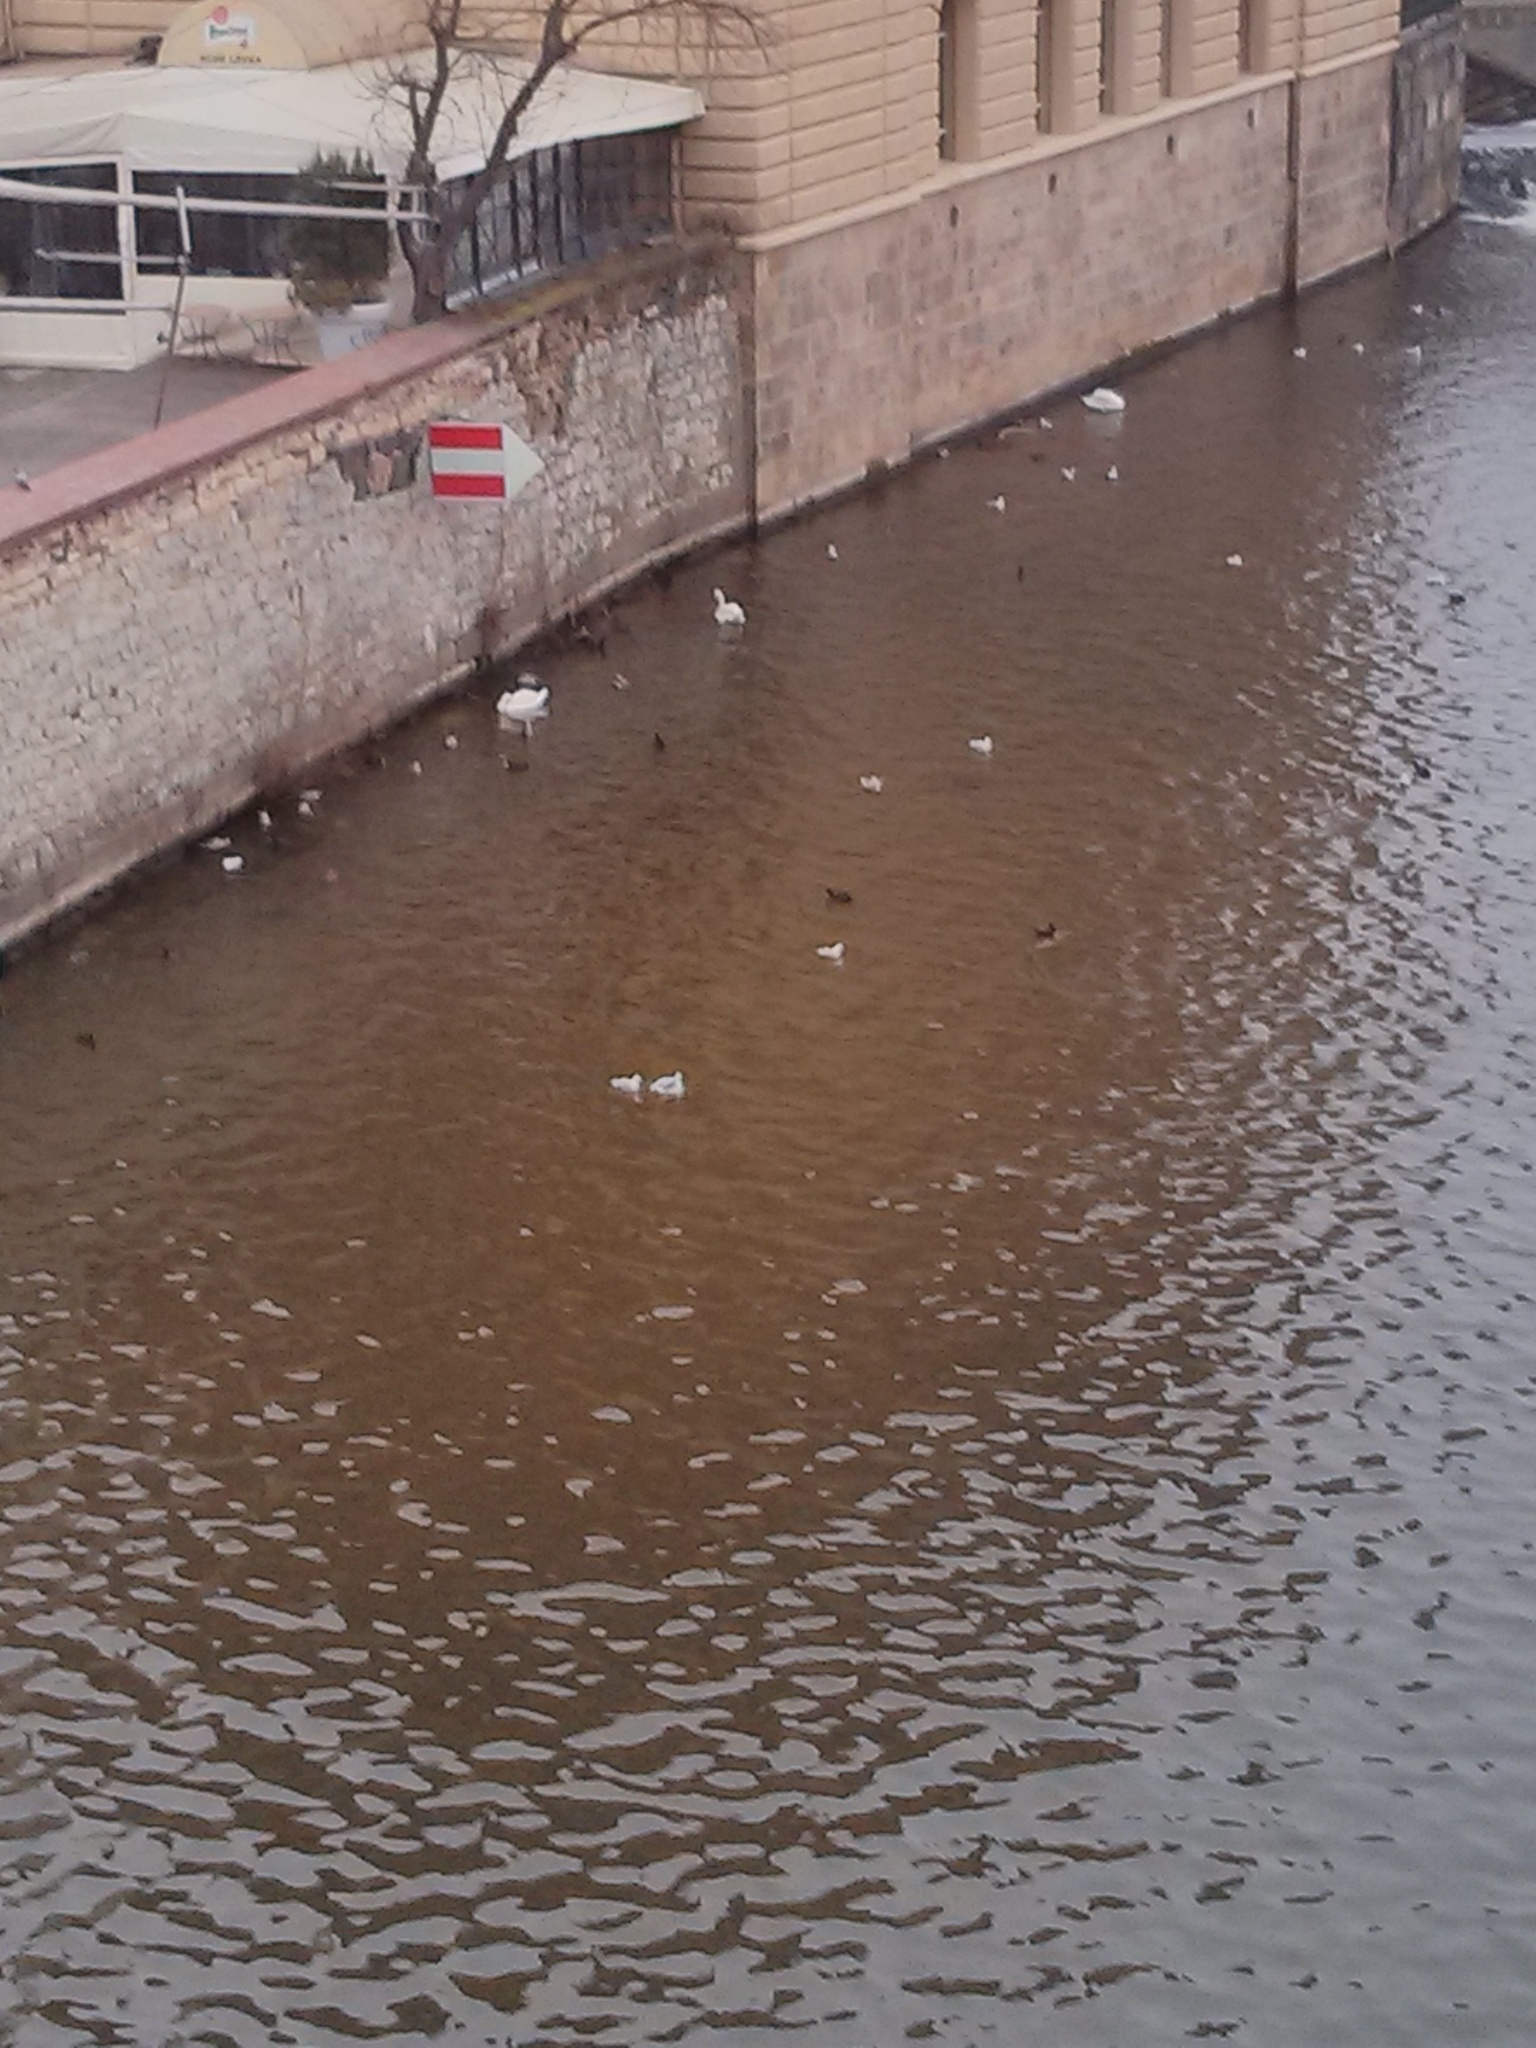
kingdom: Animalia
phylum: Chordata
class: Aves
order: Gruiformes
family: Rallidae
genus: Fulica
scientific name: Fulica atra
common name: Eurasian coot
